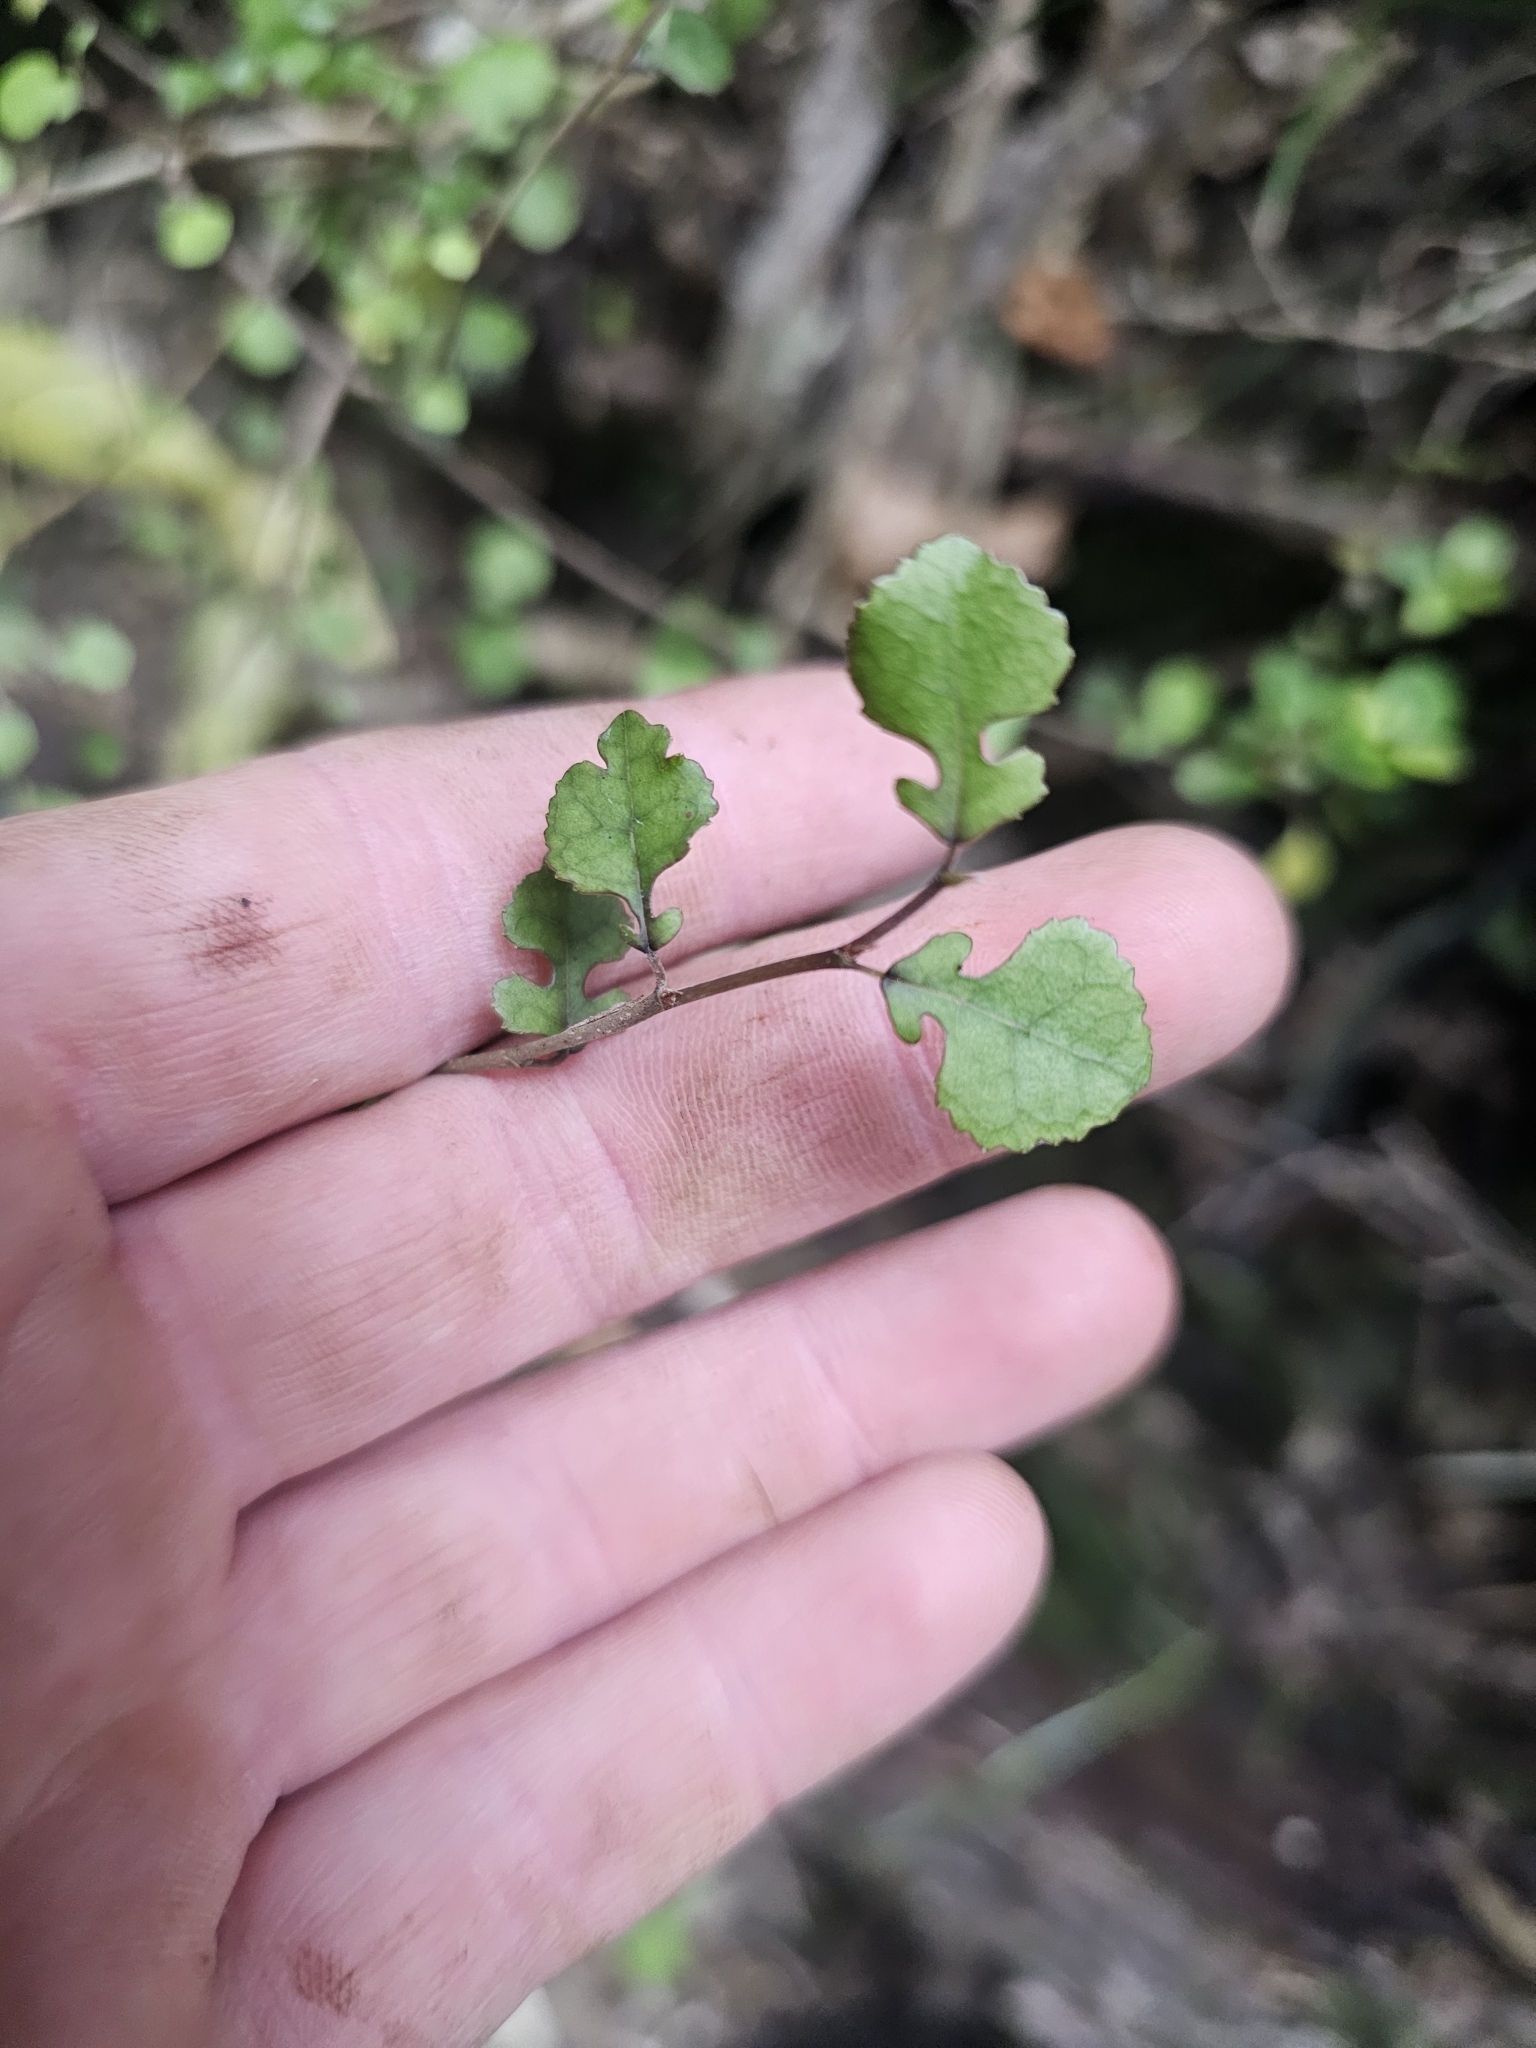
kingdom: Plantae
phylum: Tracheophyta
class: Magnoliopsida
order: Rosales
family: Moraceae
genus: Paratrophis
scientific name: Paratrophis microphylla
